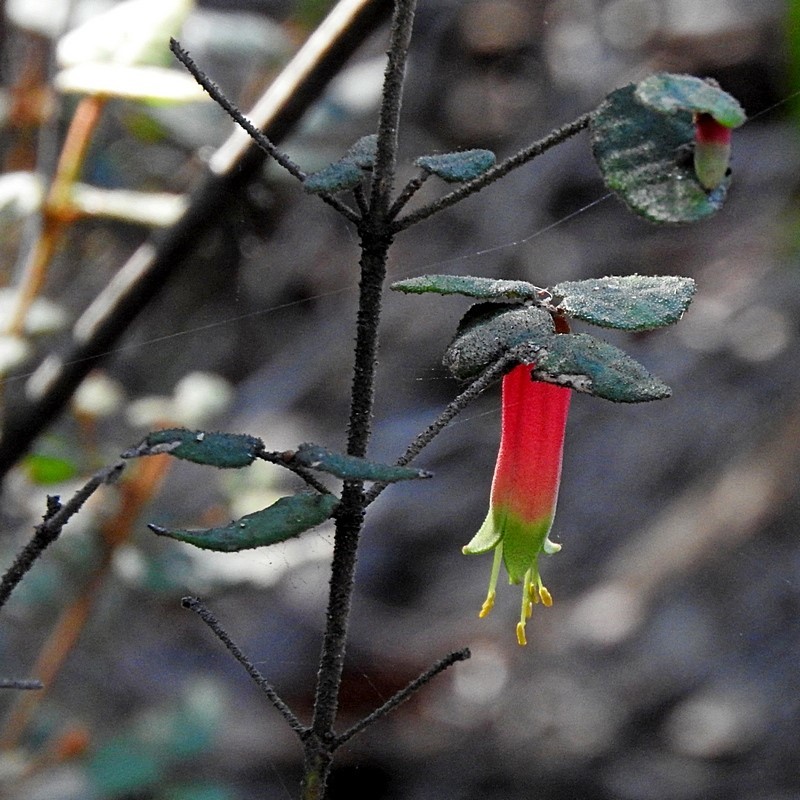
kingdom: Plantae
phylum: Tracheophyta
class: Magnoliopsida
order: Sapindales
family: Rutaceae
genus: Correa
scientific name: Correa reflexa
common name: Common correa
